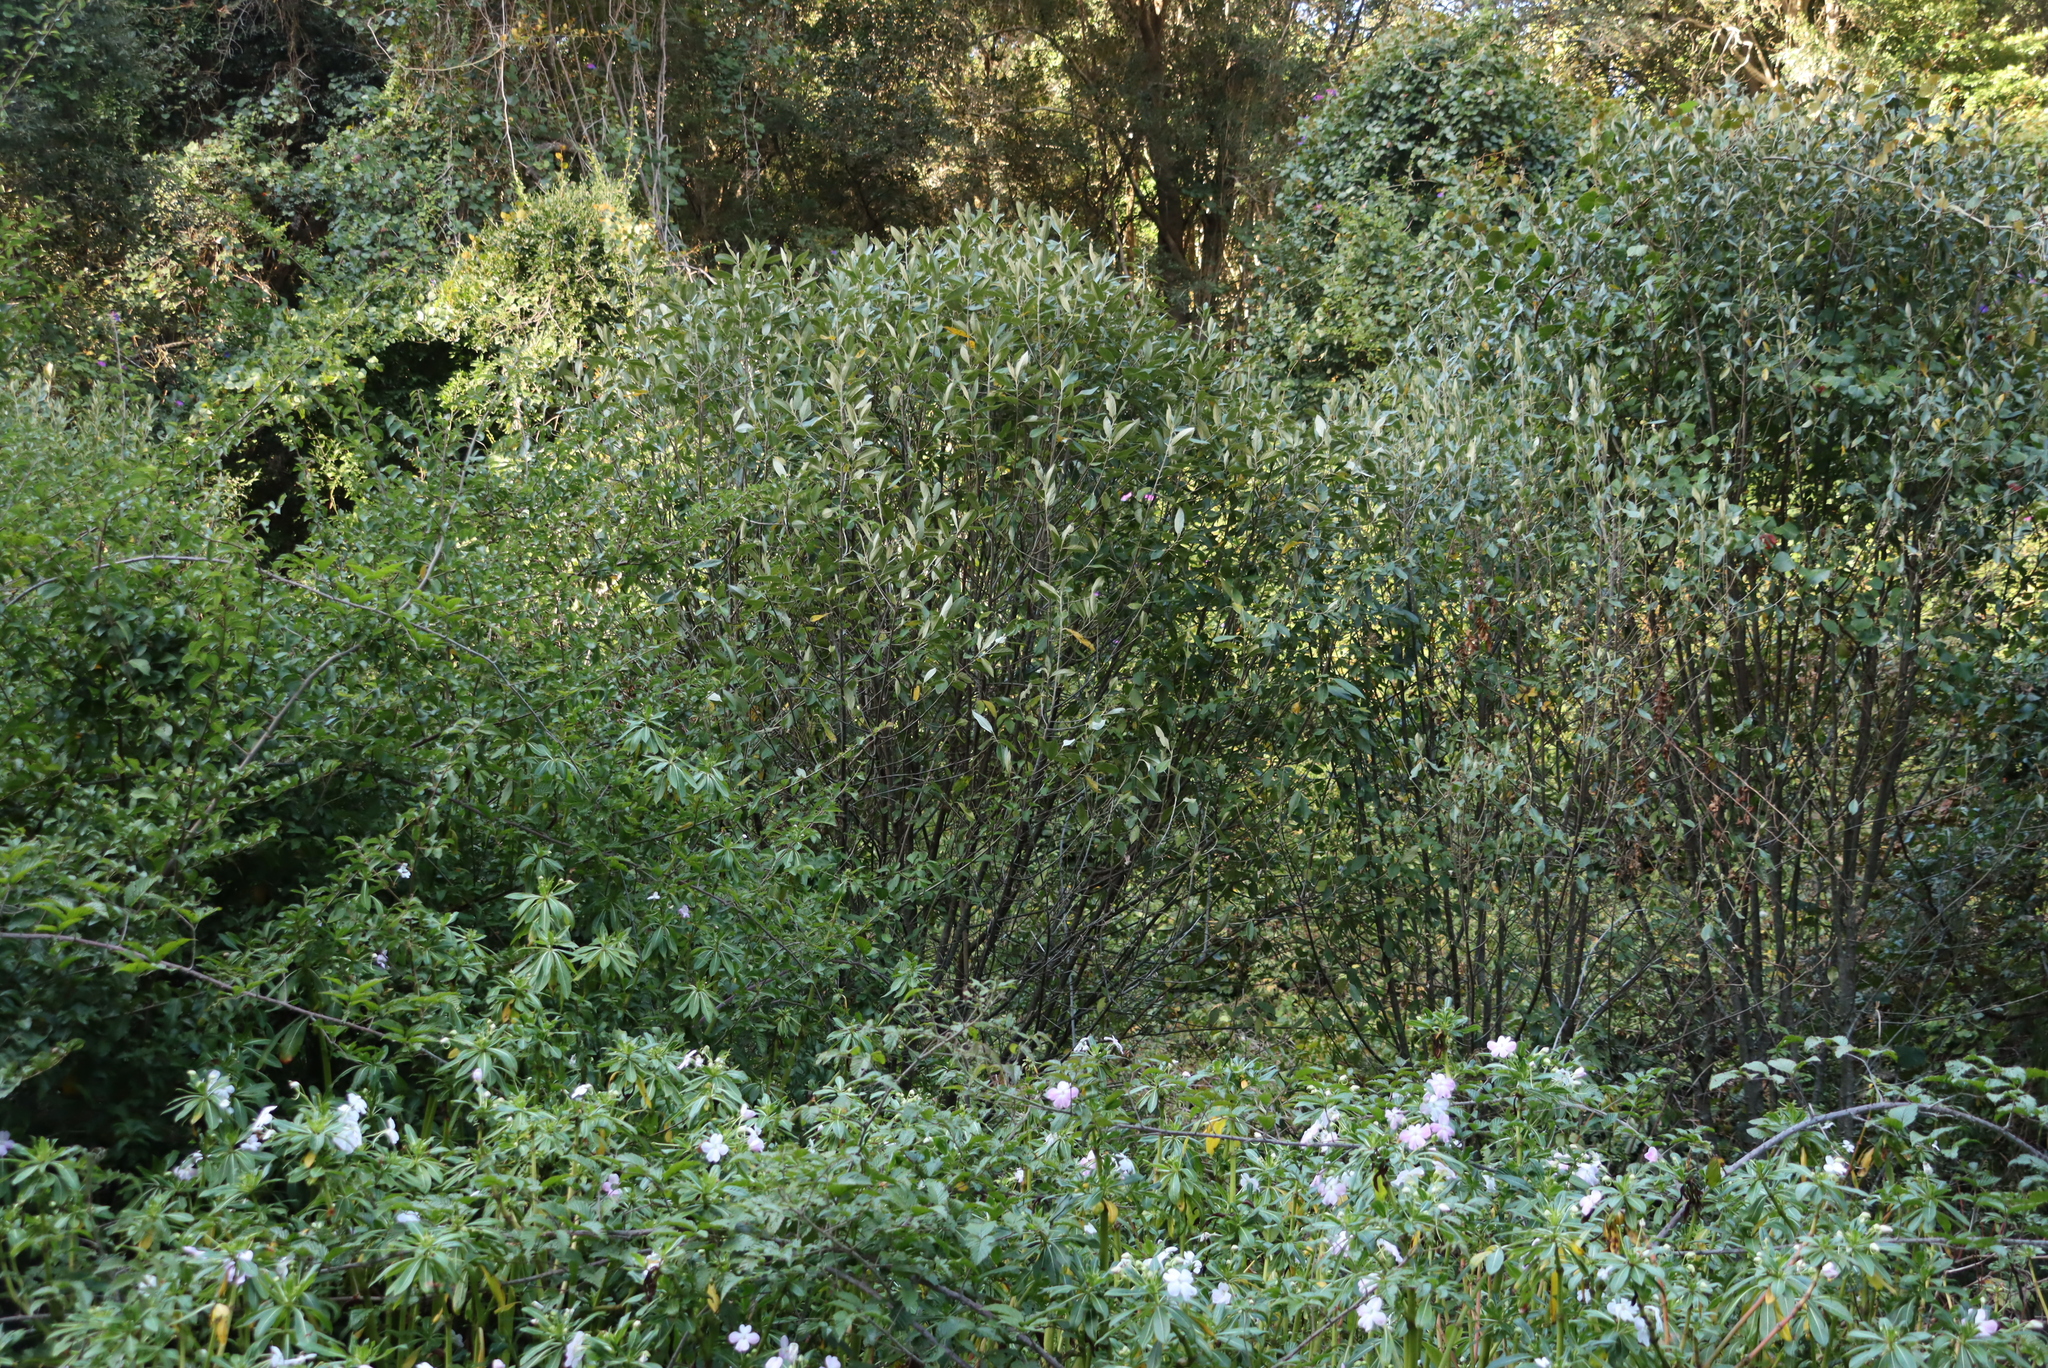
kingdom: Plantae
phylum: Tracheophyta
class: Magnoliopsida
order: Malpighiales
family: Achariaceae
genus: Kiggelaria
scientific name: Kiggelaria africana
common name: Wild peach
